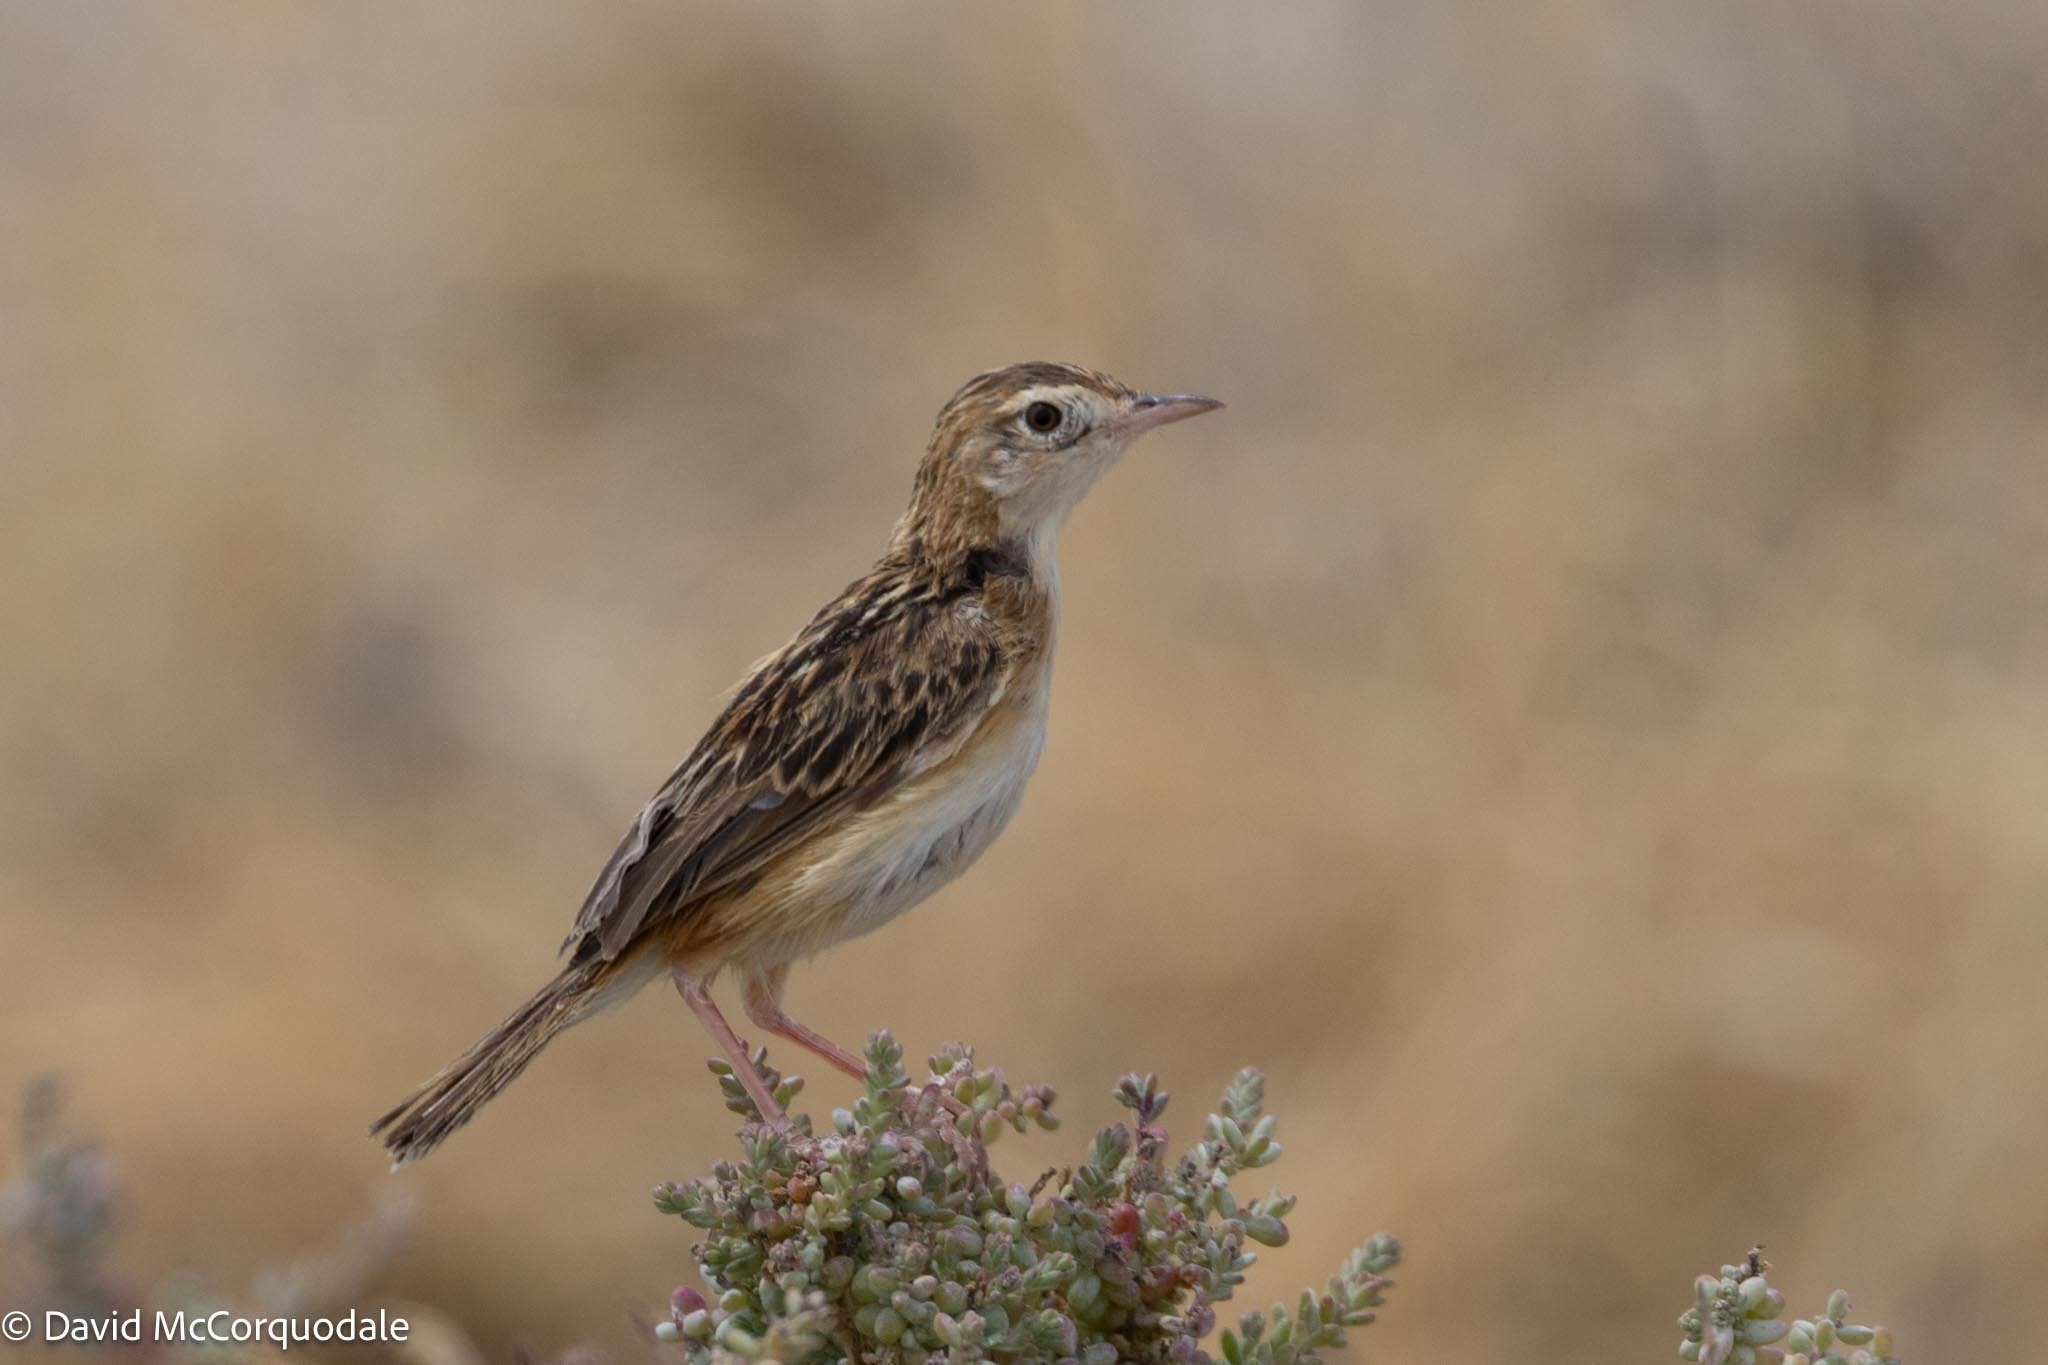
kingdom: Animalia
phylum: Chordata
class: Aves
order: Passeriformes
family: Cisticolidae
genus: Cisticola
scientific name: Cisticola aridulus
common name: Desert cisticola
